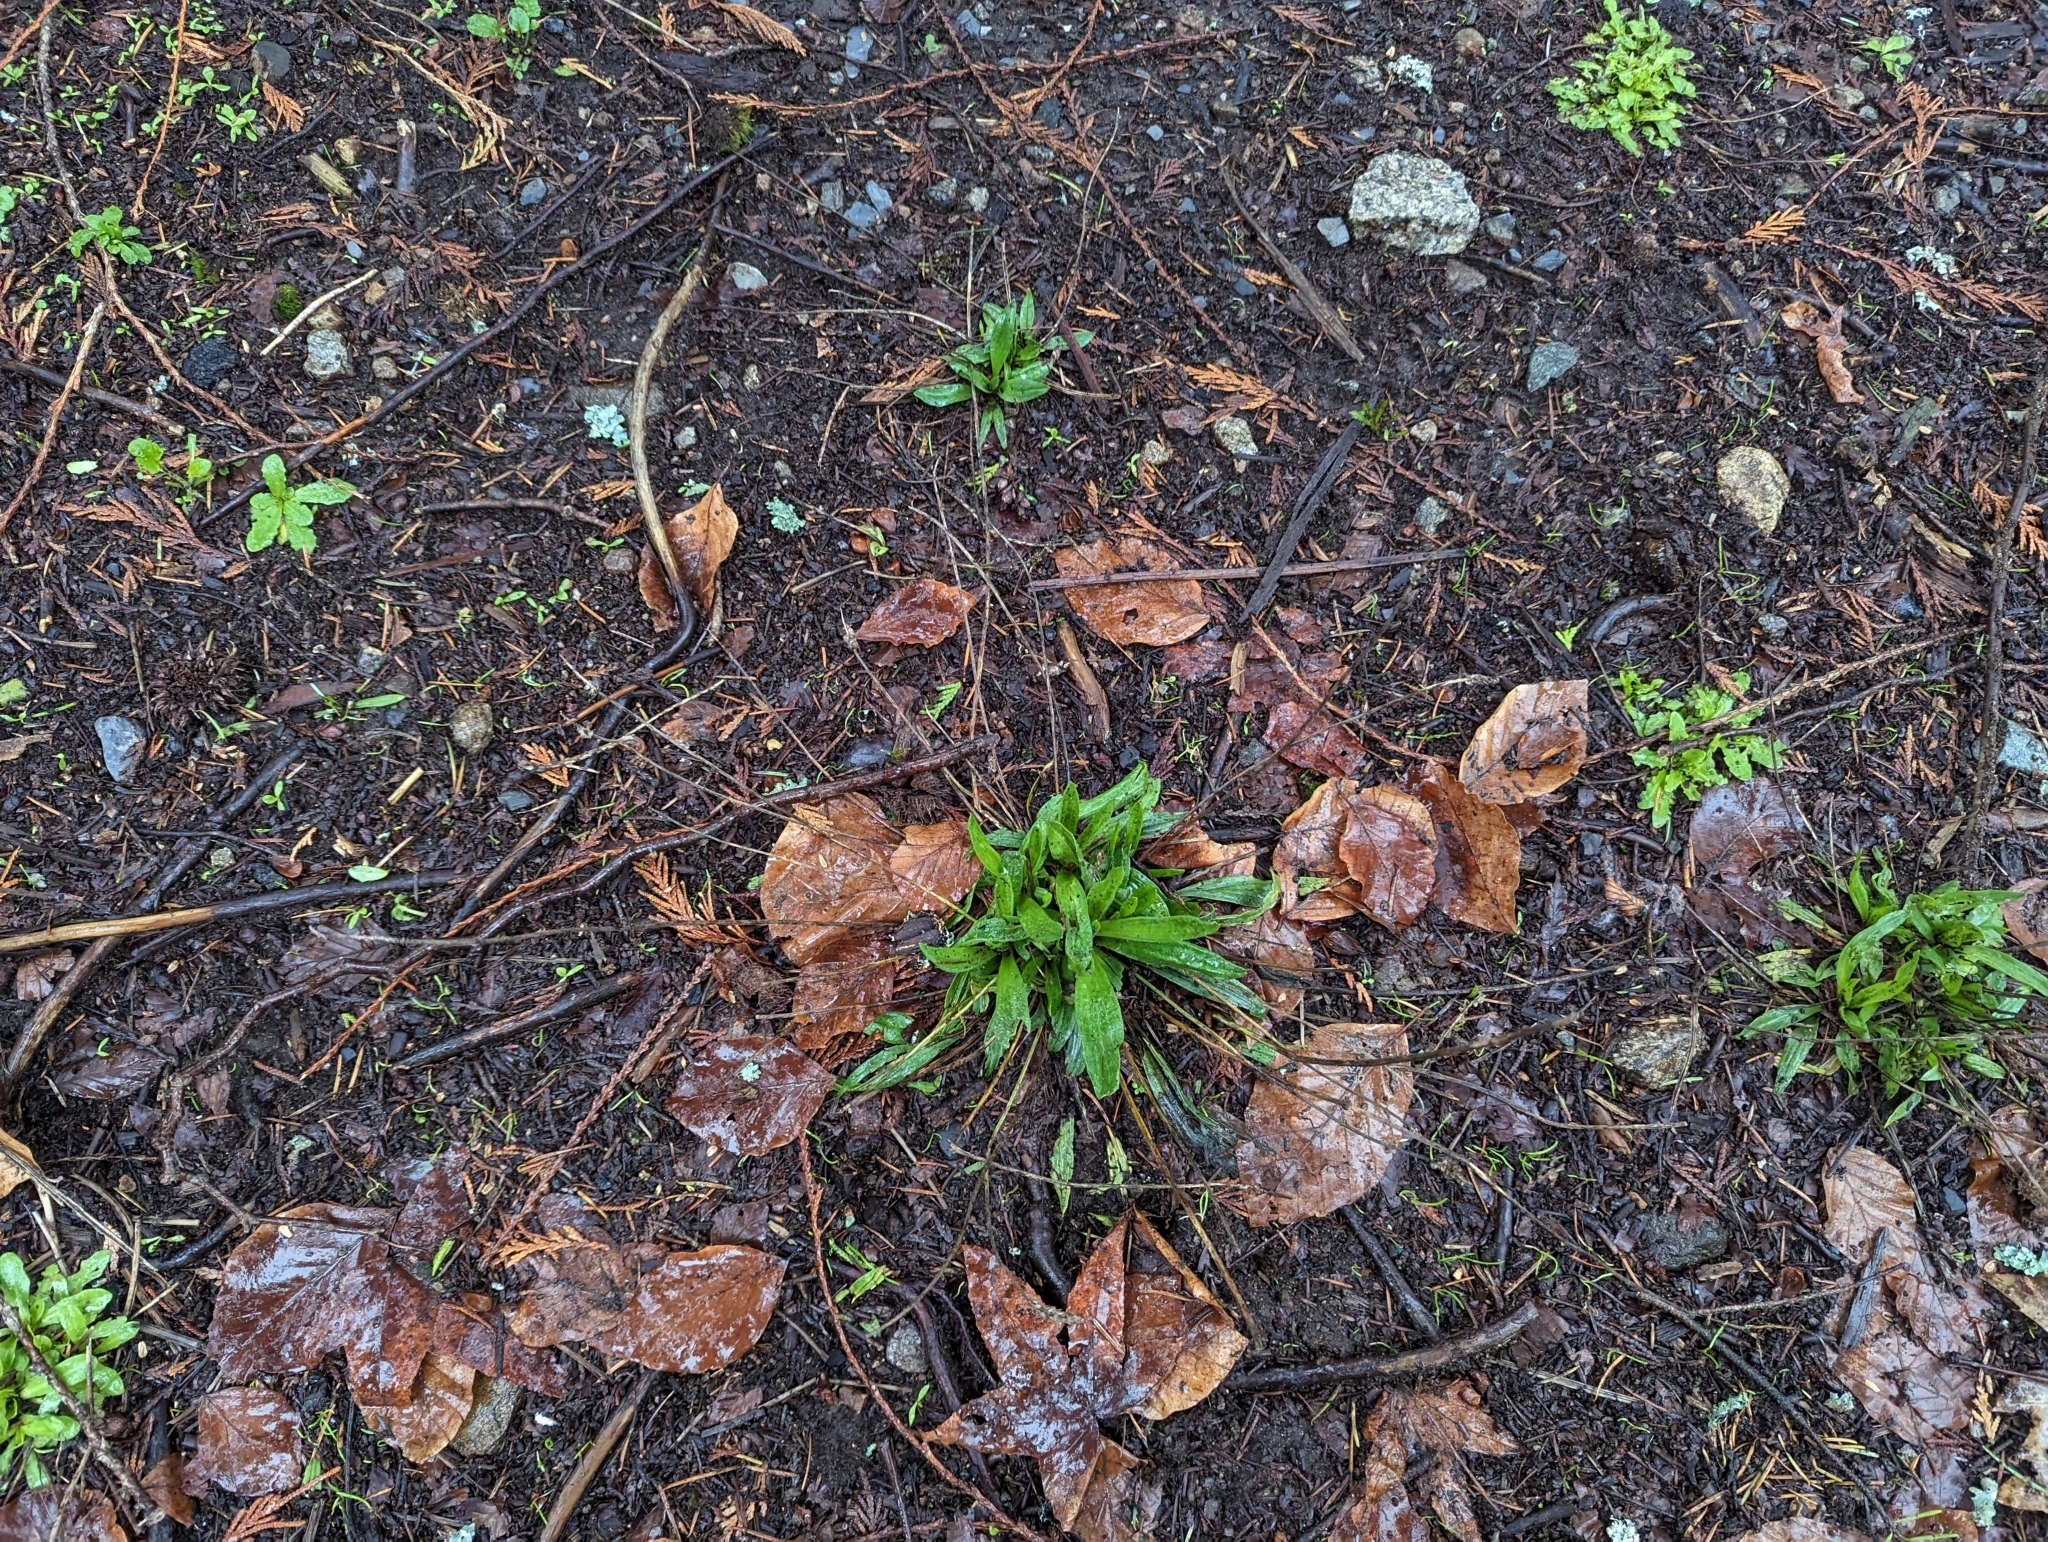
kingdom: Plantae
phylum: Tracheophyta
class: Magnoliopsida
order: Lamiales
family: Plantaginaceae
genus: Plantago
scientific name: Plantago lanceolata
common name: Ribwort plantain
